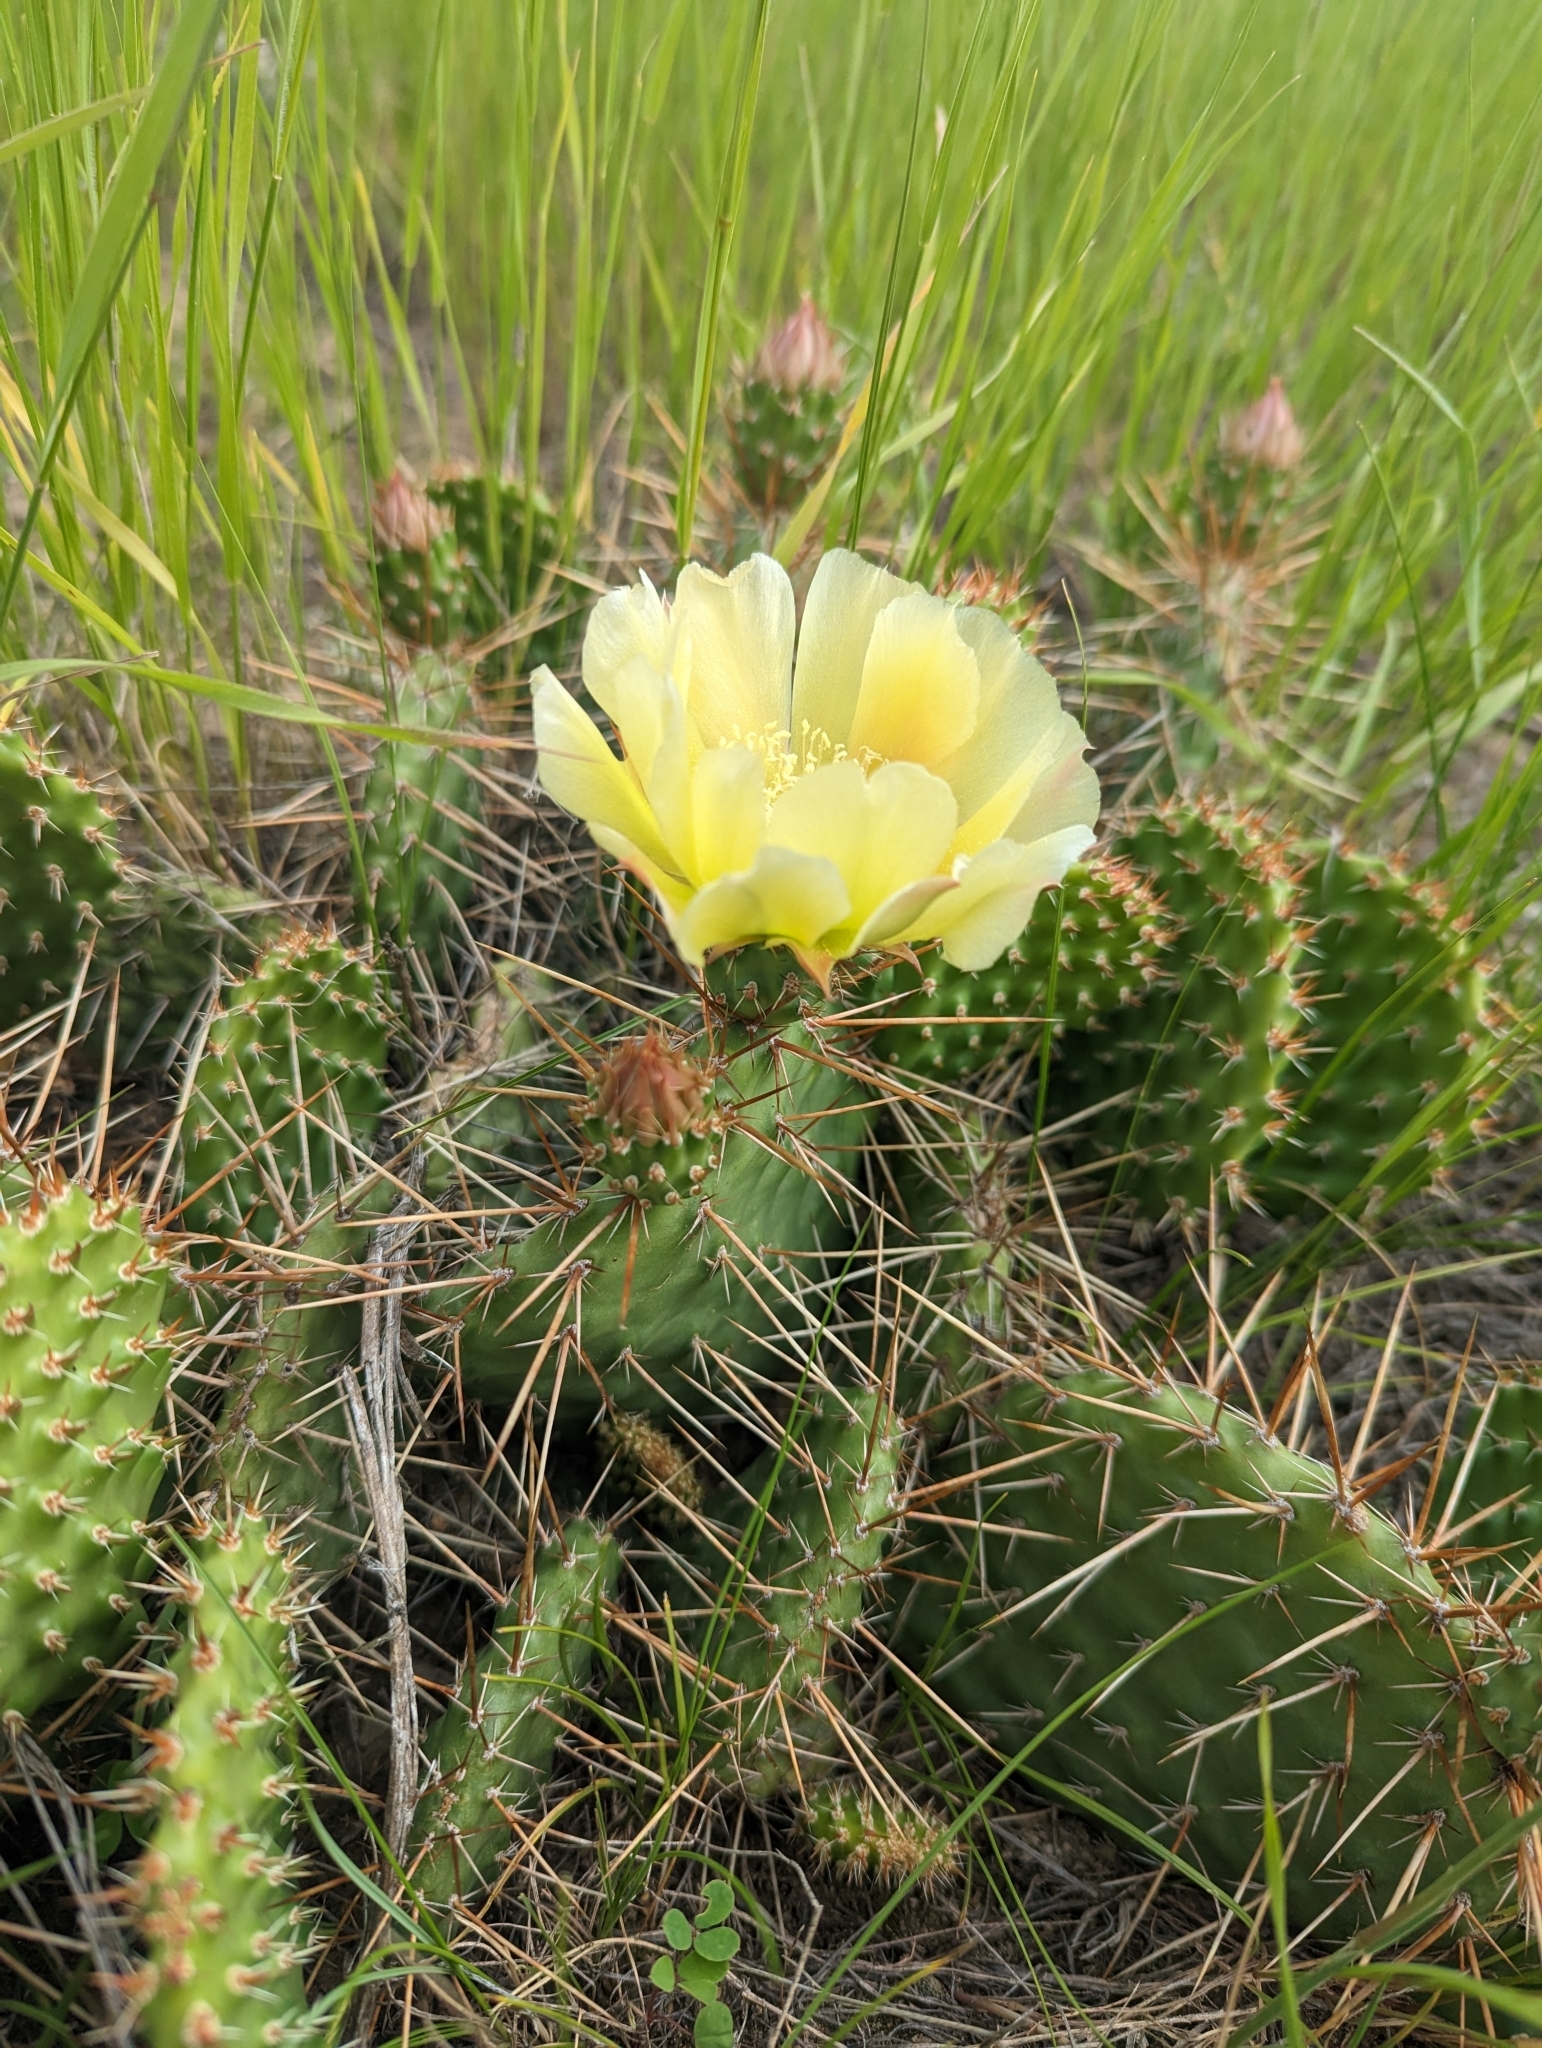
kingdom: Plantae
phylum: Tracheophyta
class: Magnoliopsida
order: Caryophyllales
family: Cactaceae
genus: Opuntia
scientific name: Opuntia polyacantha
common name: Plains prickly-pear
